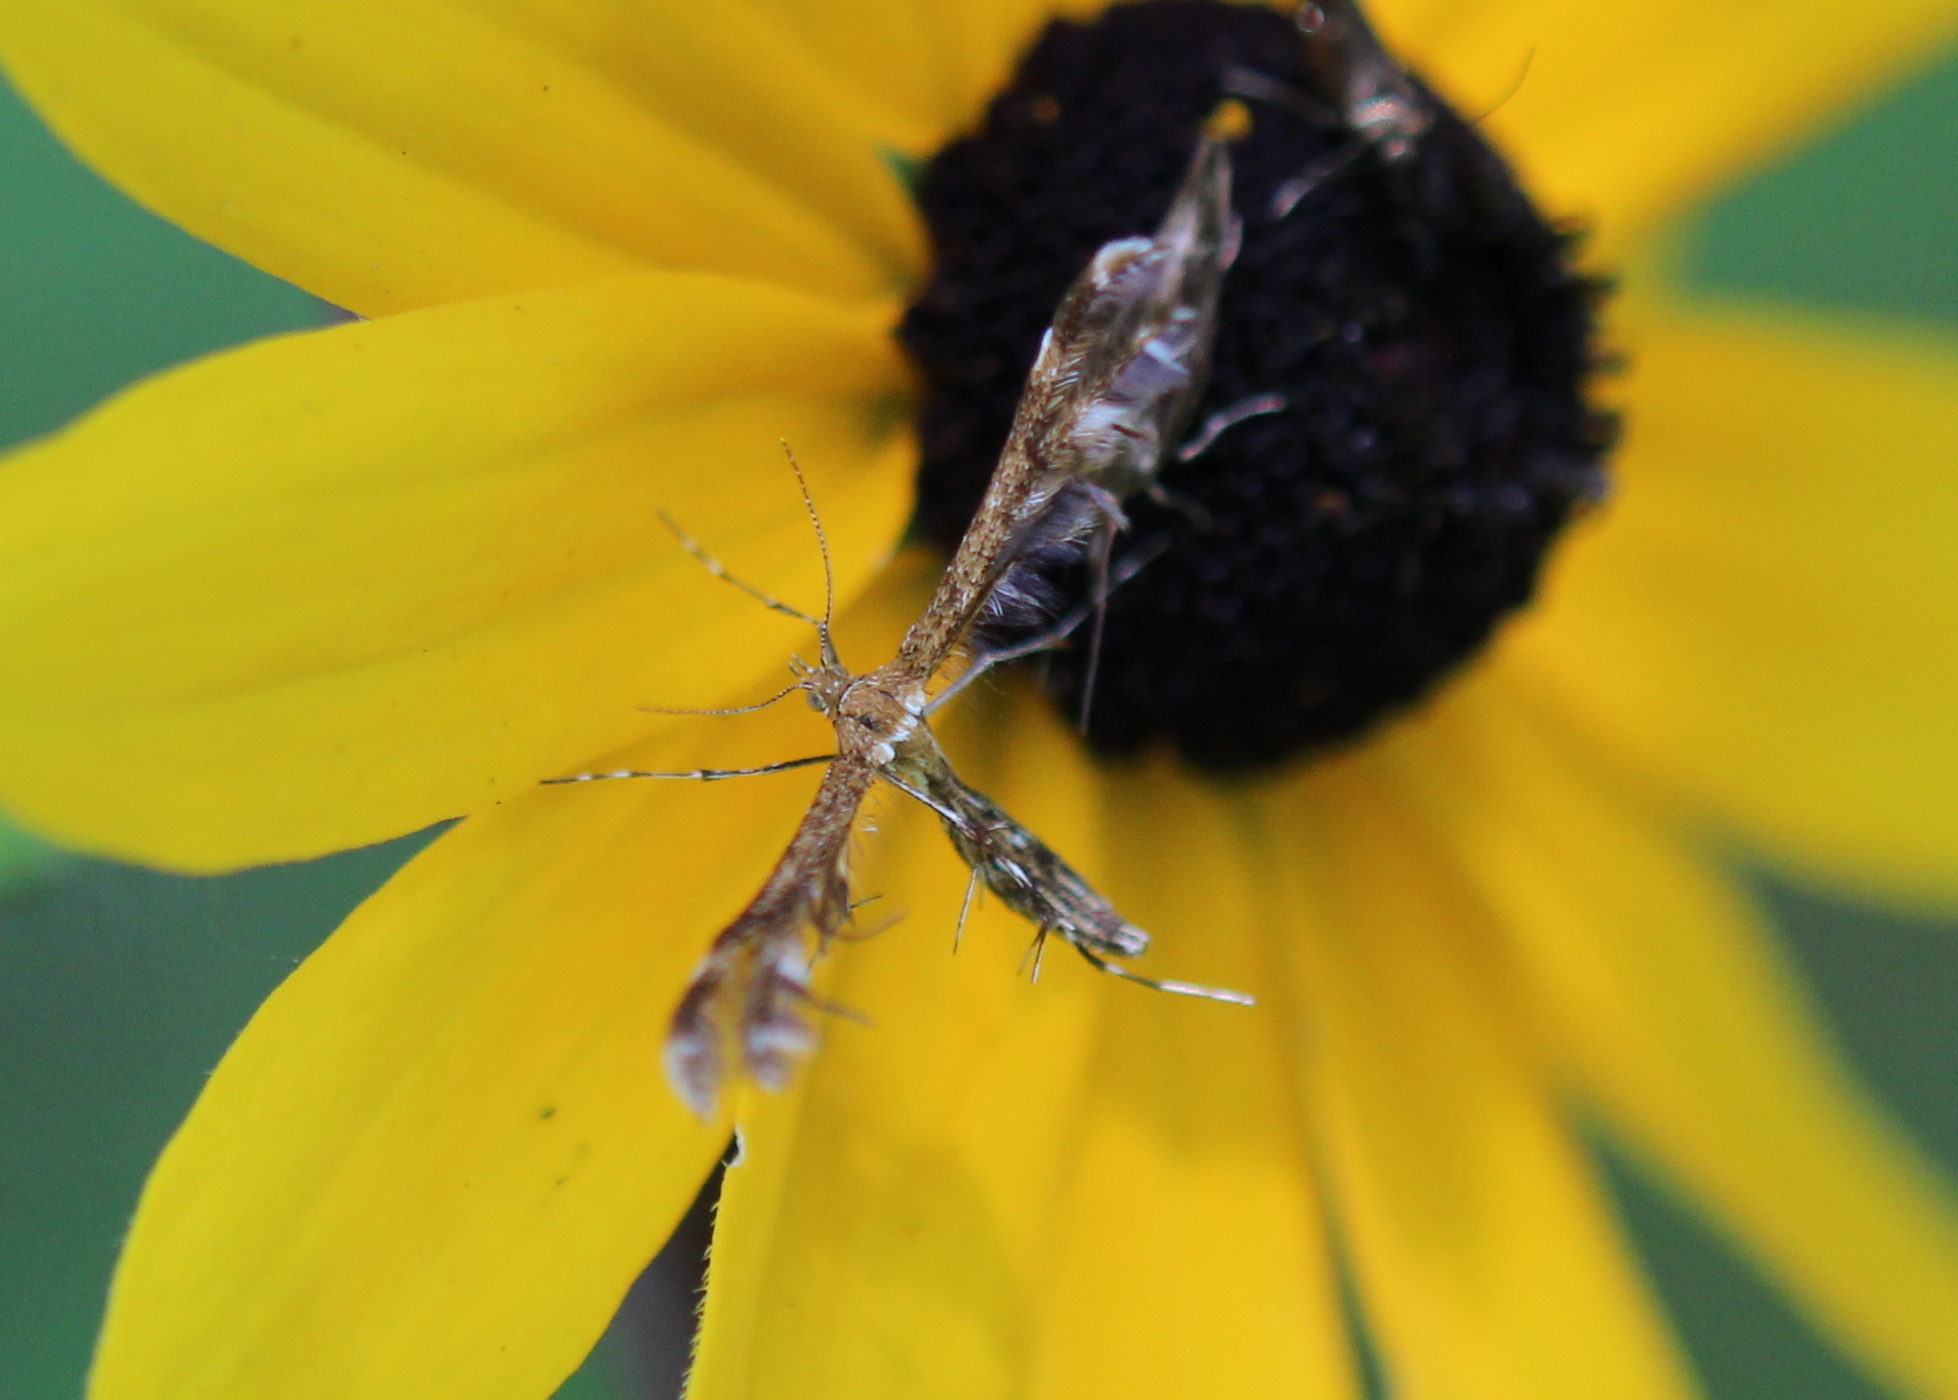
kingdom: Animalia
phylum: Arthropoda
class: Insecta
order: Lepidoptera
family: Pterophoridae
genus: Dejongia
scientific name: Dejongia lobidactylus
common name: Lobed plume moth
